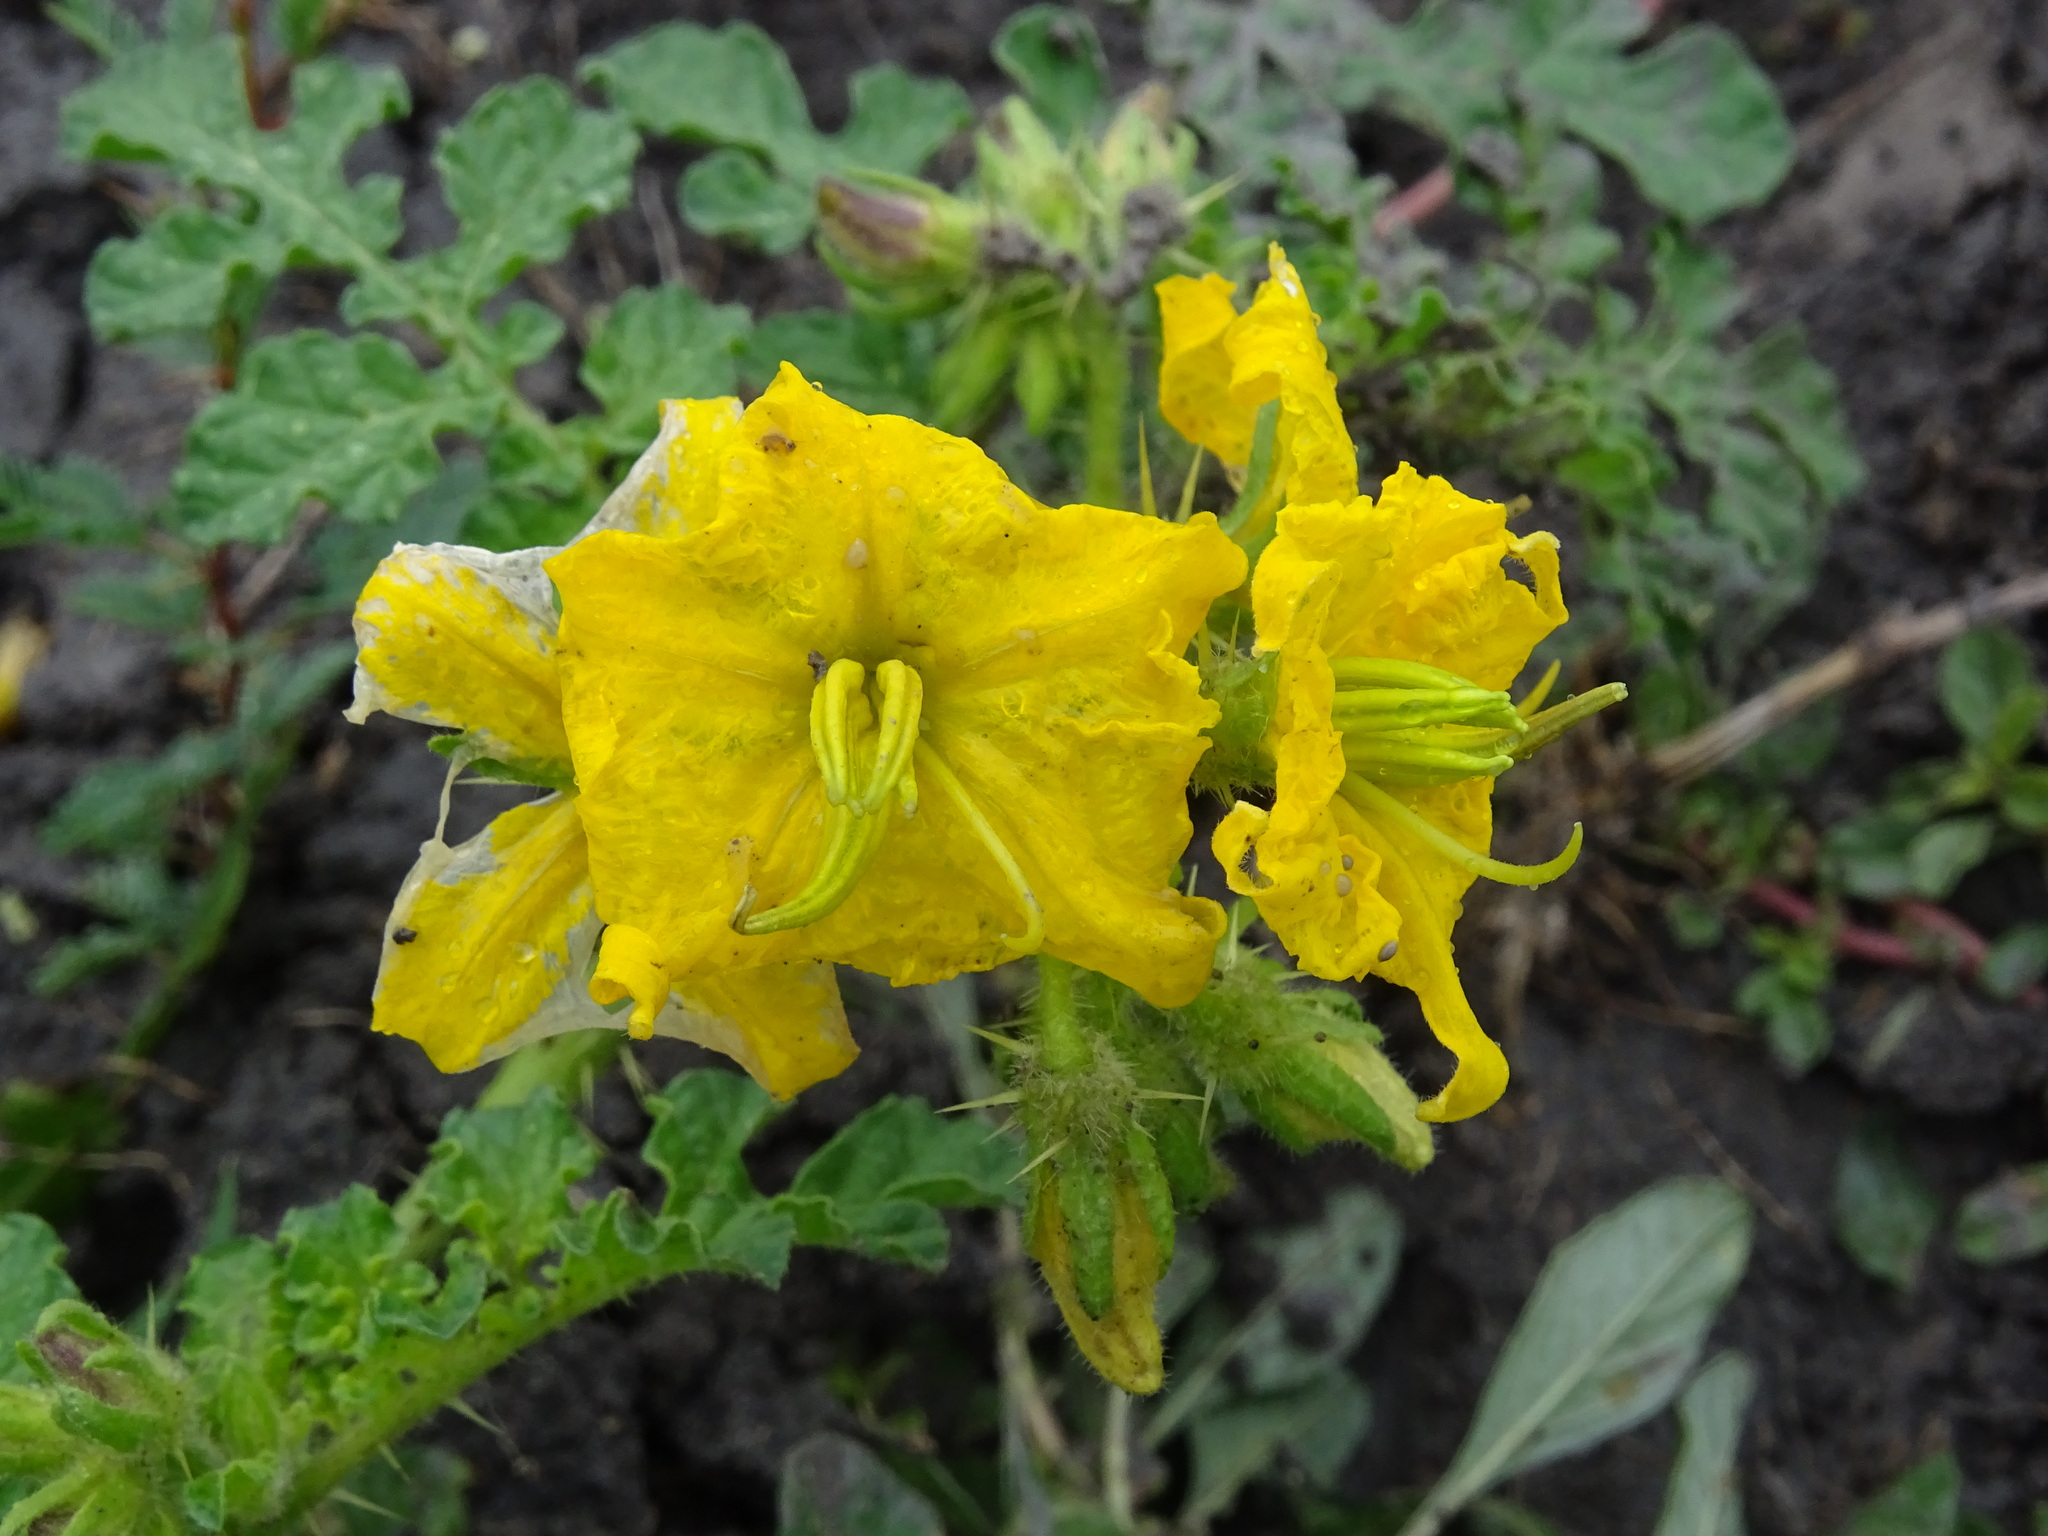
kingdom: Plantae
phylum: Tracheophyta
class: Magnoliopsida
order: Solanales
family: Solanaceae
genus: Solanum
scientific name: Solanum angustifolium
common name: Buffalobur nightshade
